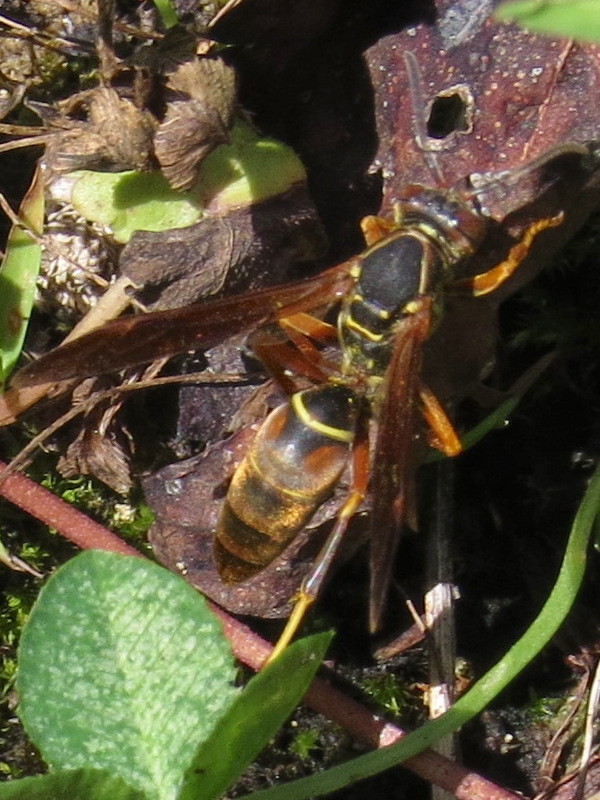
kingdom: Animalia
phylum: Arthropoda
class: Insecta
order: Hymenoptera
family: Eumenidae
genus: Polistes
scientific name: Polistes fuscatus
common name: Dark paper wasp
